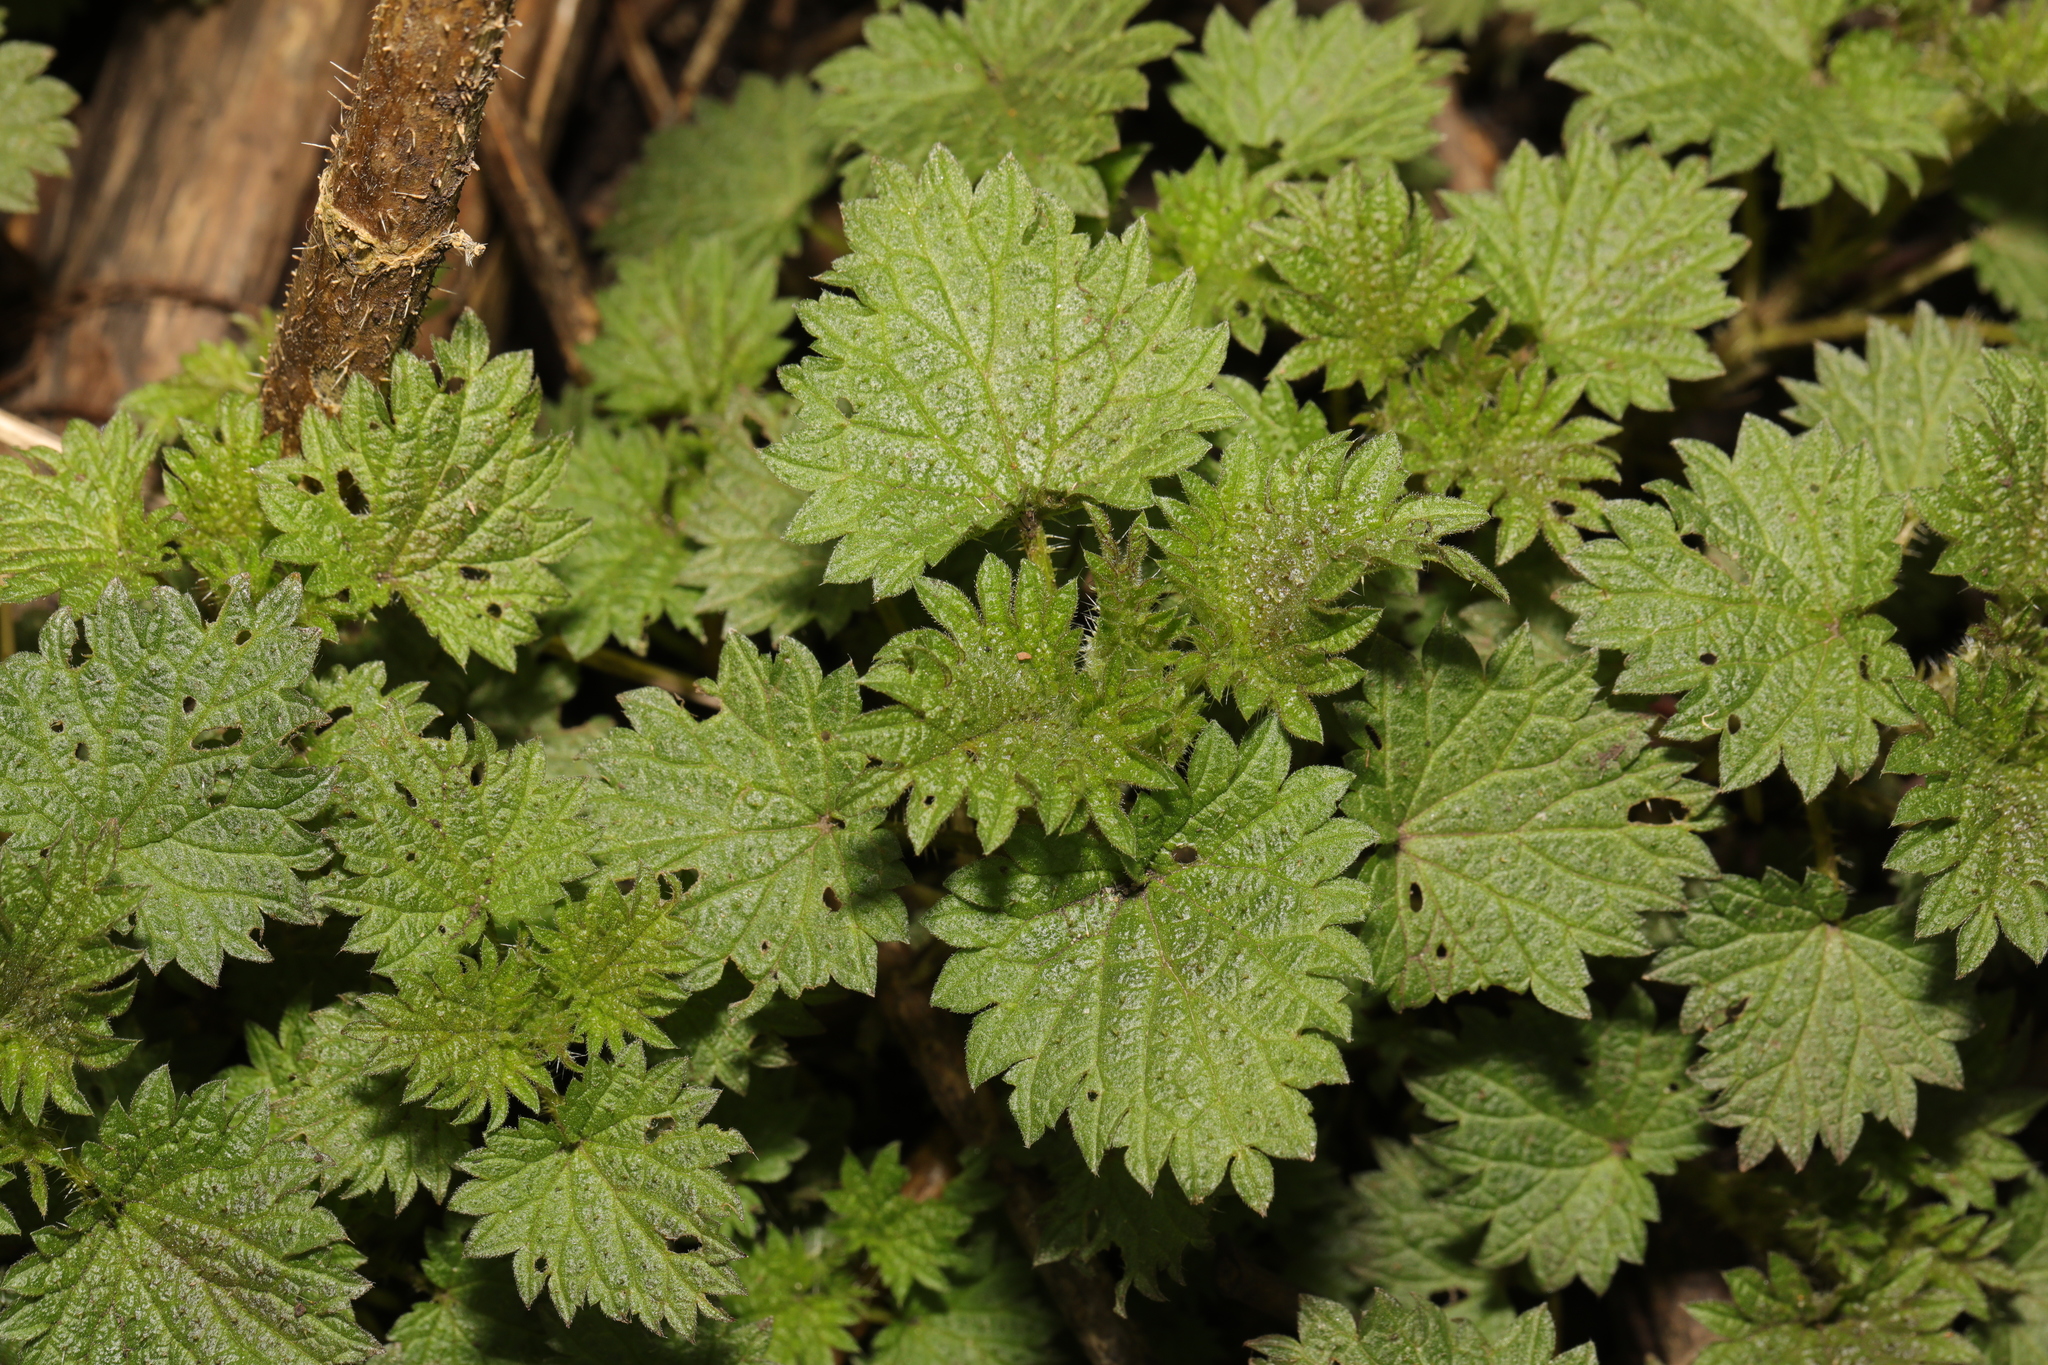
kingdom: Plantae
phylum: Tracheophyta
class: Magnoliopsida
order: Rosales
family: Urticaceae
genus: Urtica
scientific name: Urtica dioica
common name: Common nettle
